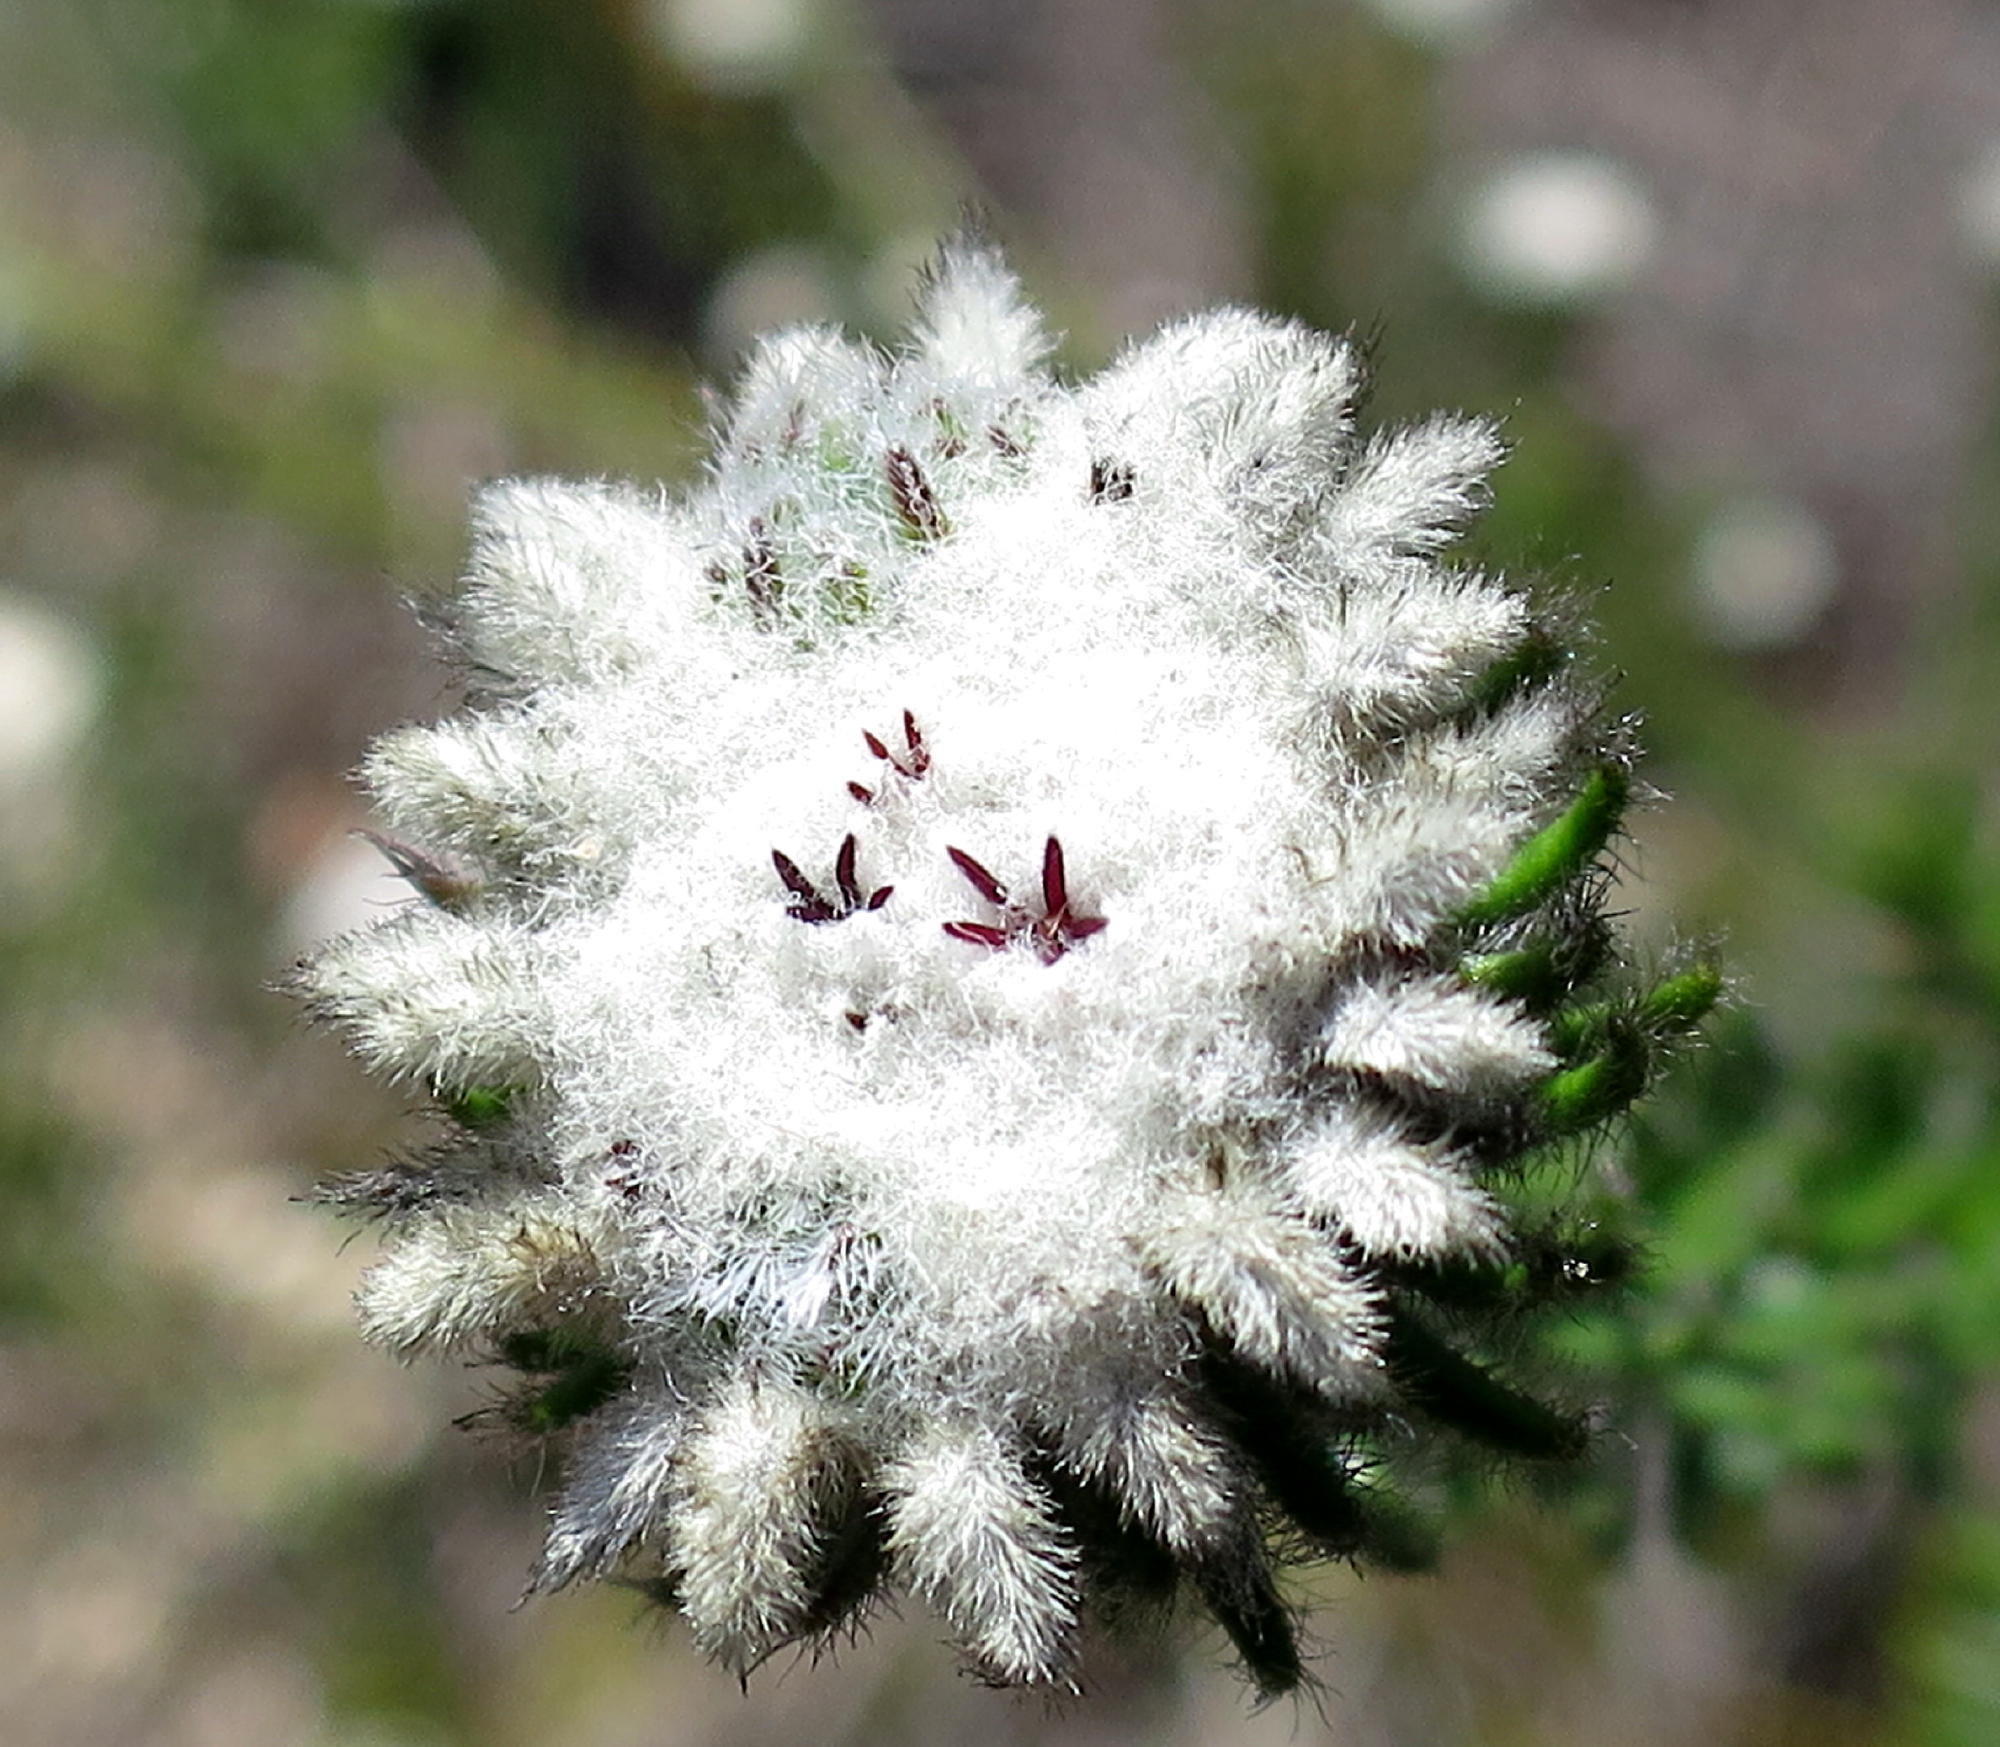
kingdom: Plantae
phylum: Tracheophyta
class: Magnoliopsida
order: Rosales
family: Rhamnaceae
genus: Phylica
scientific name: Phylica curvifolia
